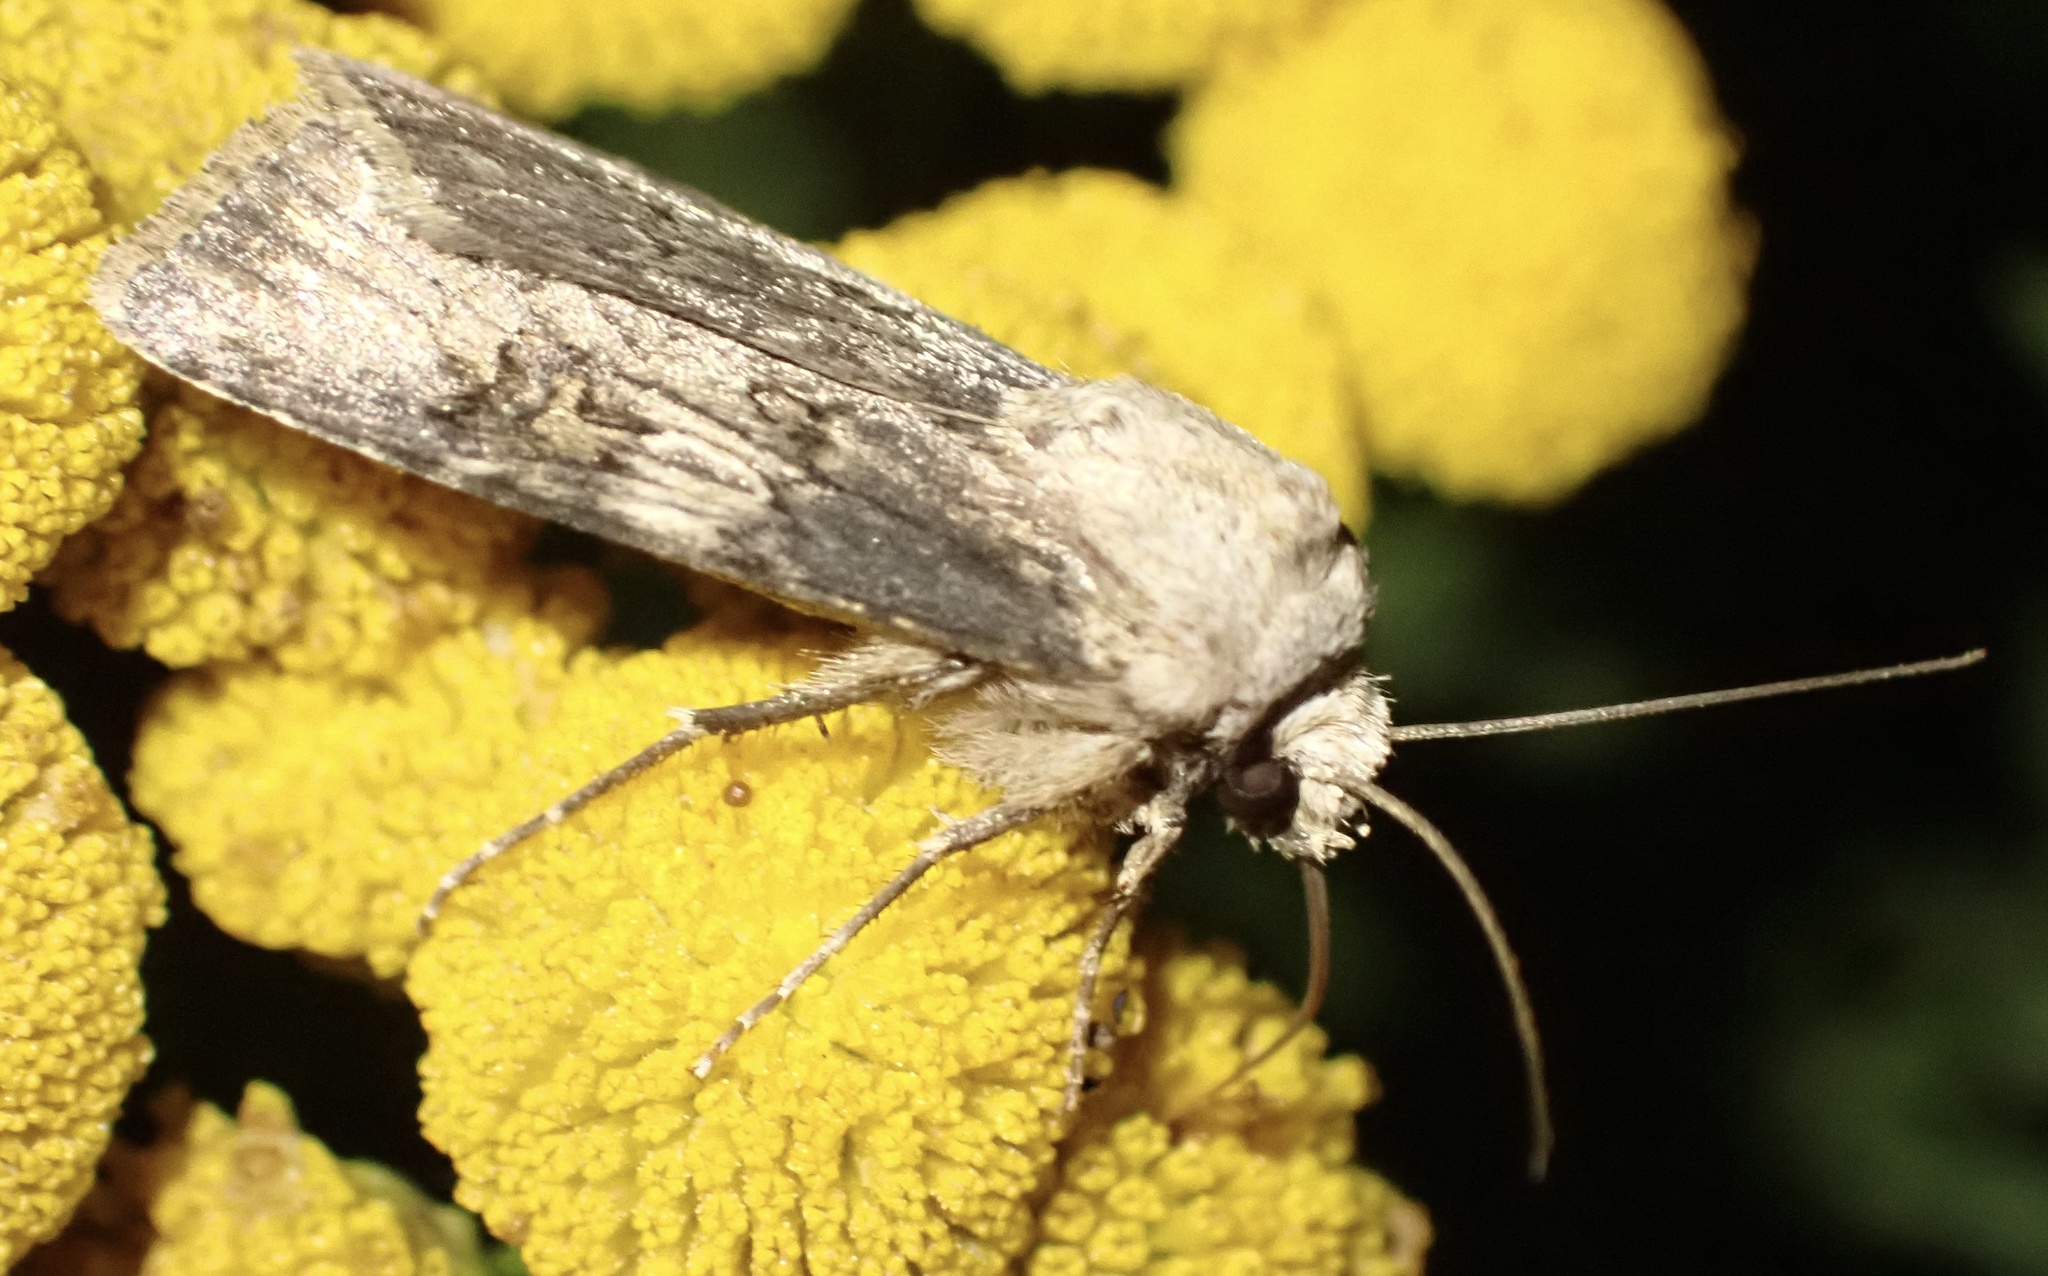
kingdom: Animalia
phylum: Arthropoda
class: Insecta
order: Lepidoptera
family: Noctuidae
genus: Agrotis
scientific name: Agrotis puta
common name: Shuttle-shaped dart
